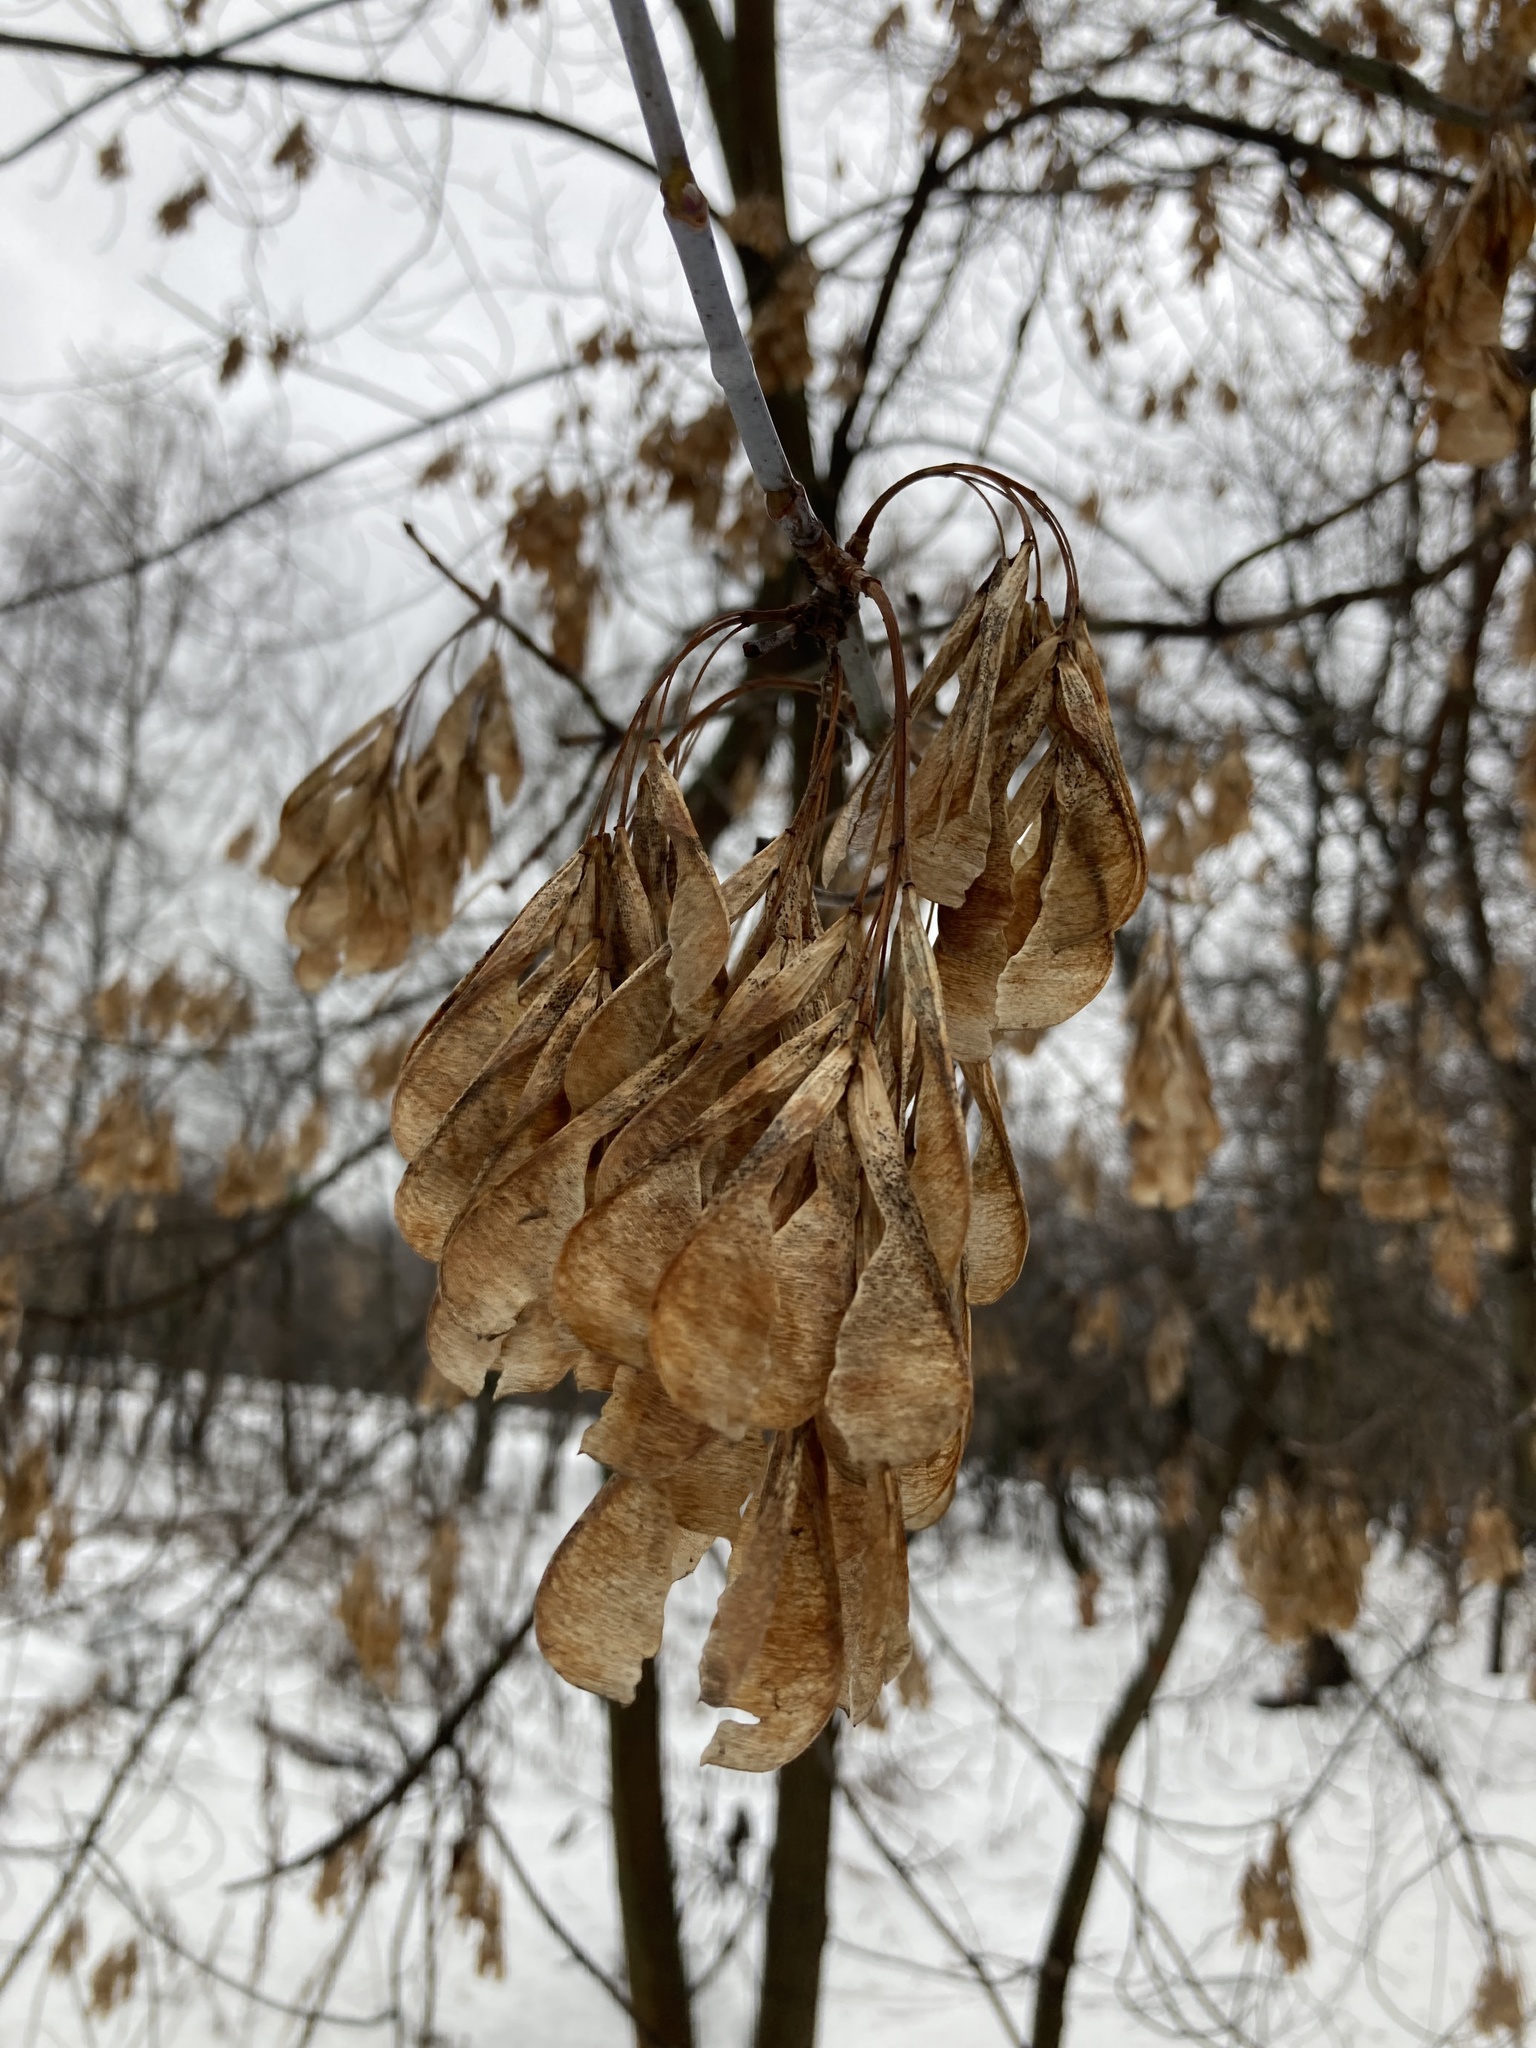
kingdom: Plantae
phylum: Tracheophyta
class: Magnoliopsida
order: Sapindales
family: Sapindaceae
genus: Acer
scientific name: Acer negundo
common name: Ashleaf maple
